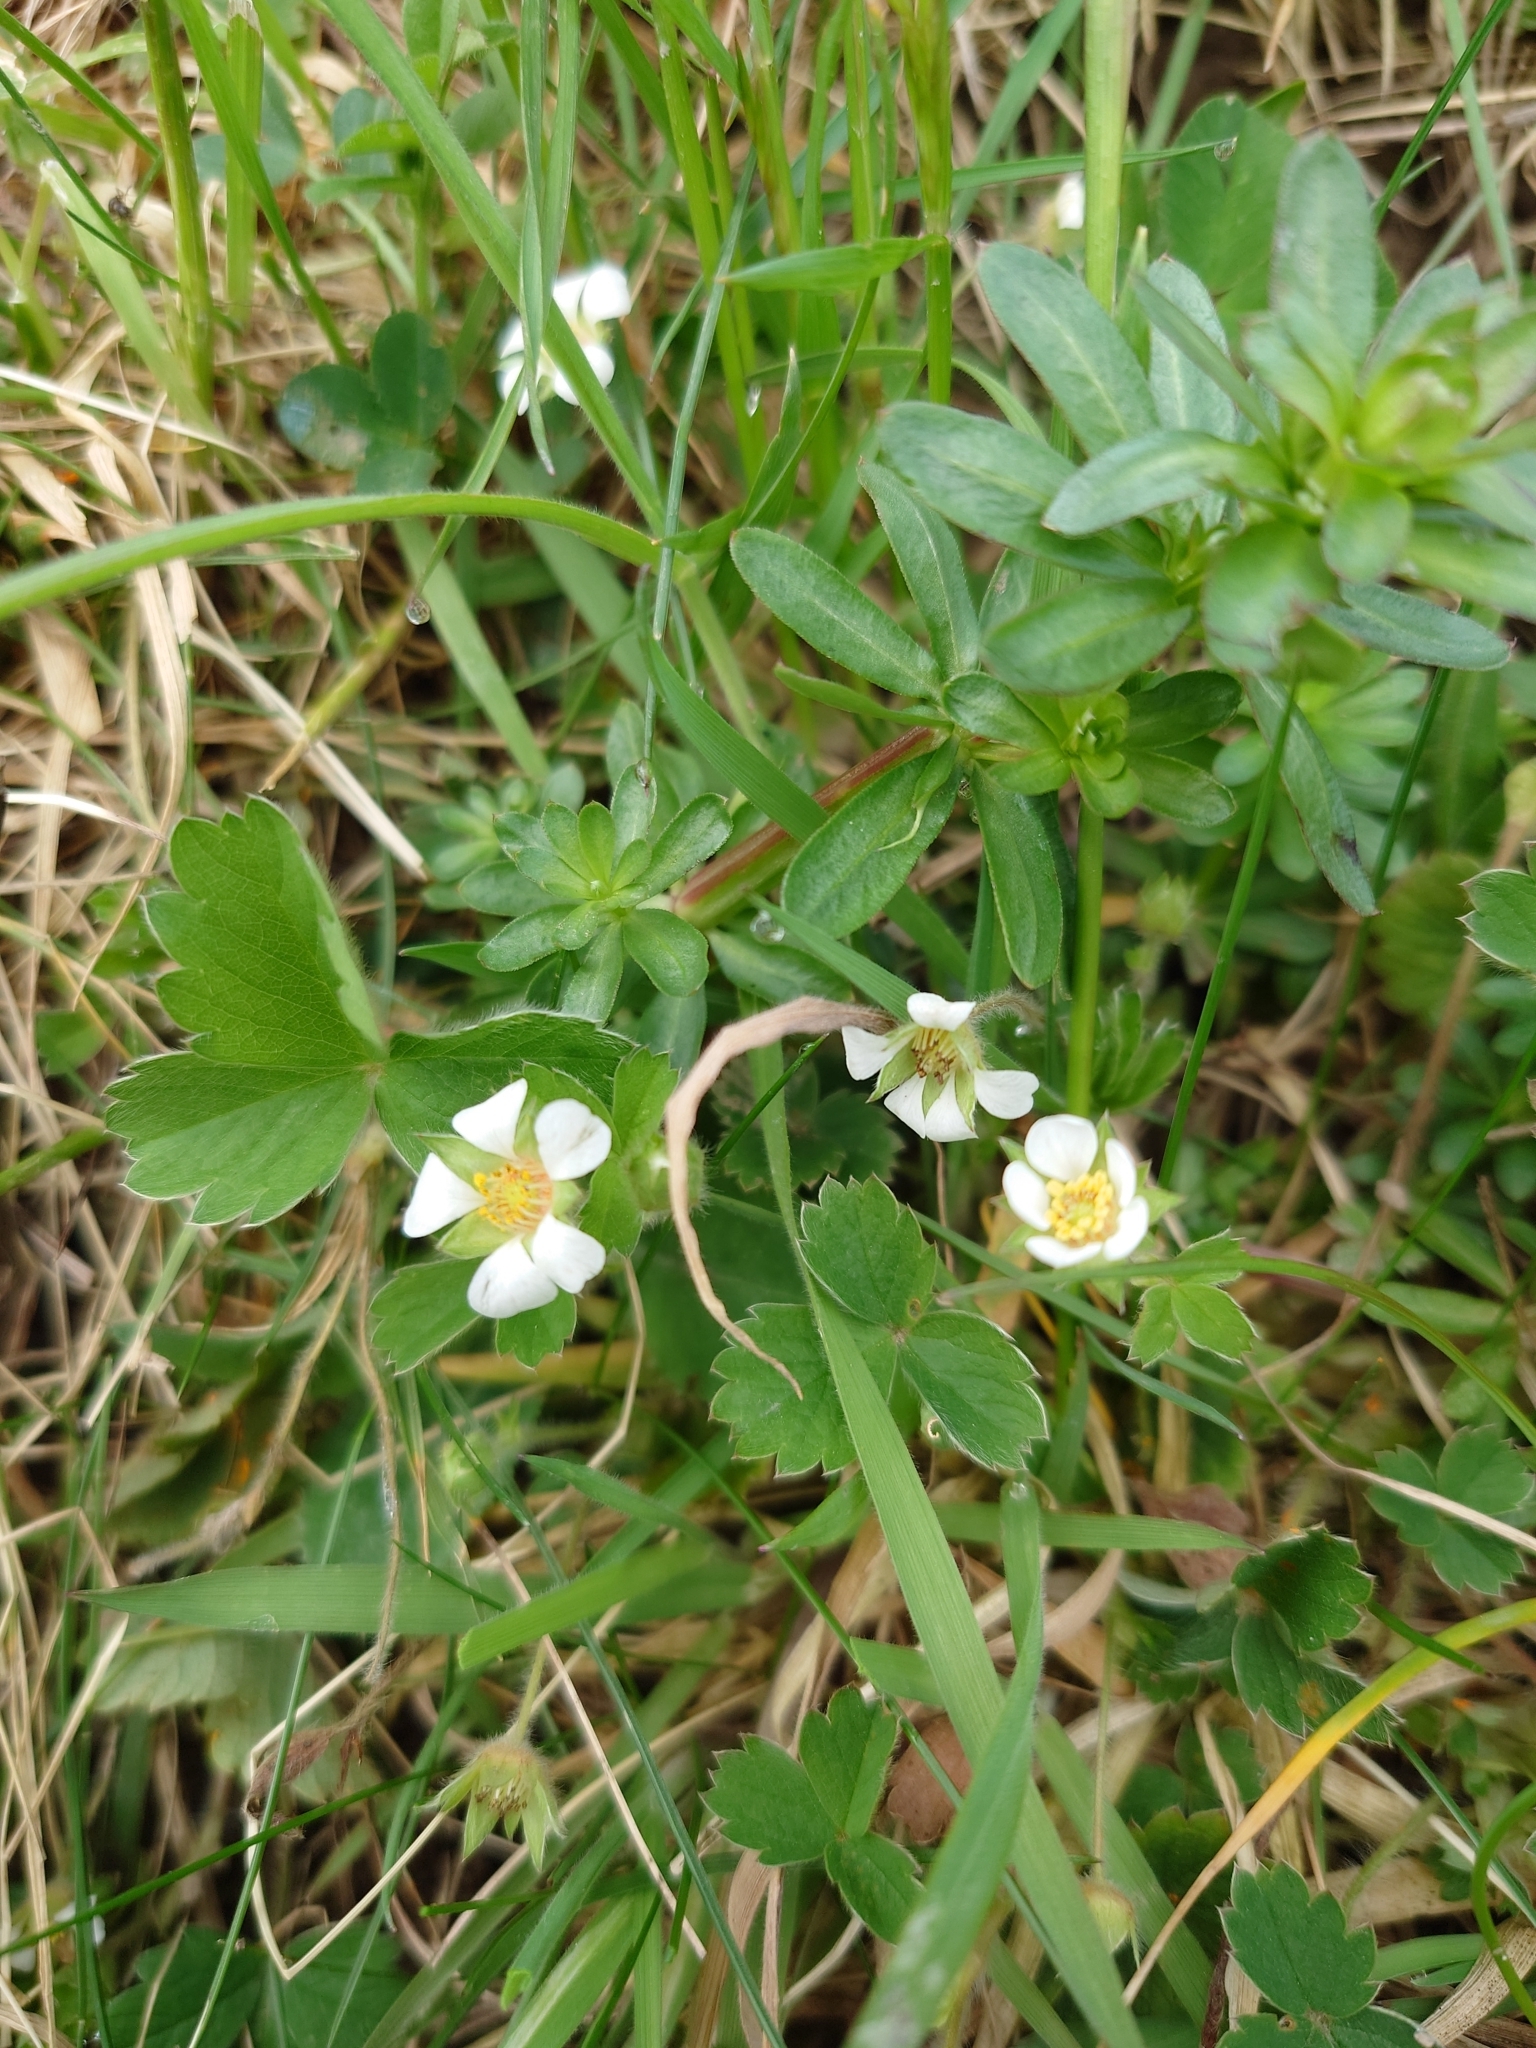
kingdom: Plantae
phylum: Tracheophyta
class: Magnoliopsida
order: Rosales
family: Rosaceae
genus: Potentilla
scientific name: Potentilla sterilis
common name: Barren strawberry
